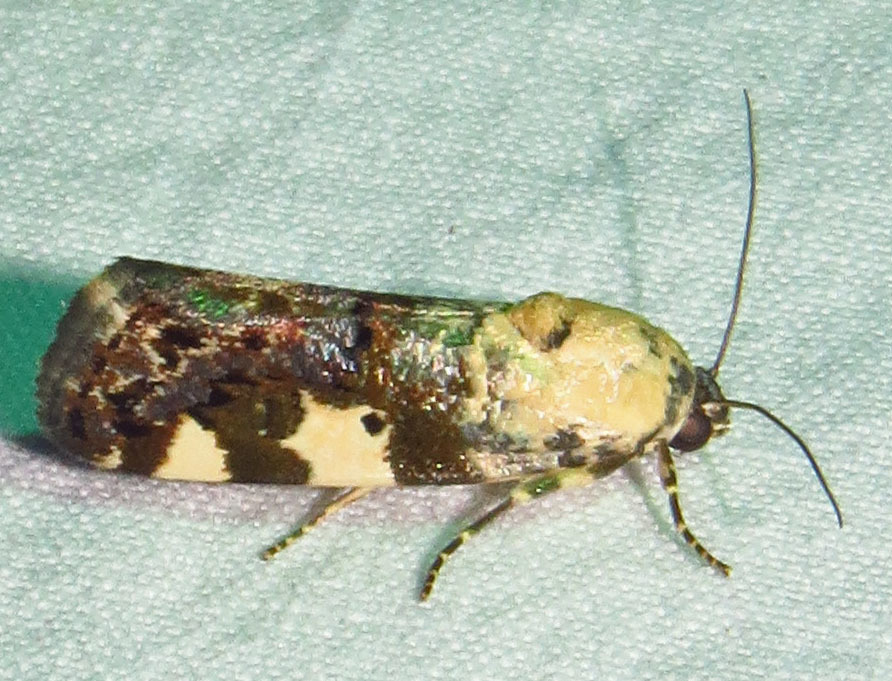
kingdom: Animalia
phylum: Arthropoda
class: Insecta
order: Lepidoptera
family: Noctuidae
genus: Acontia
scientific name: Acontia aprica
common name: Nun
